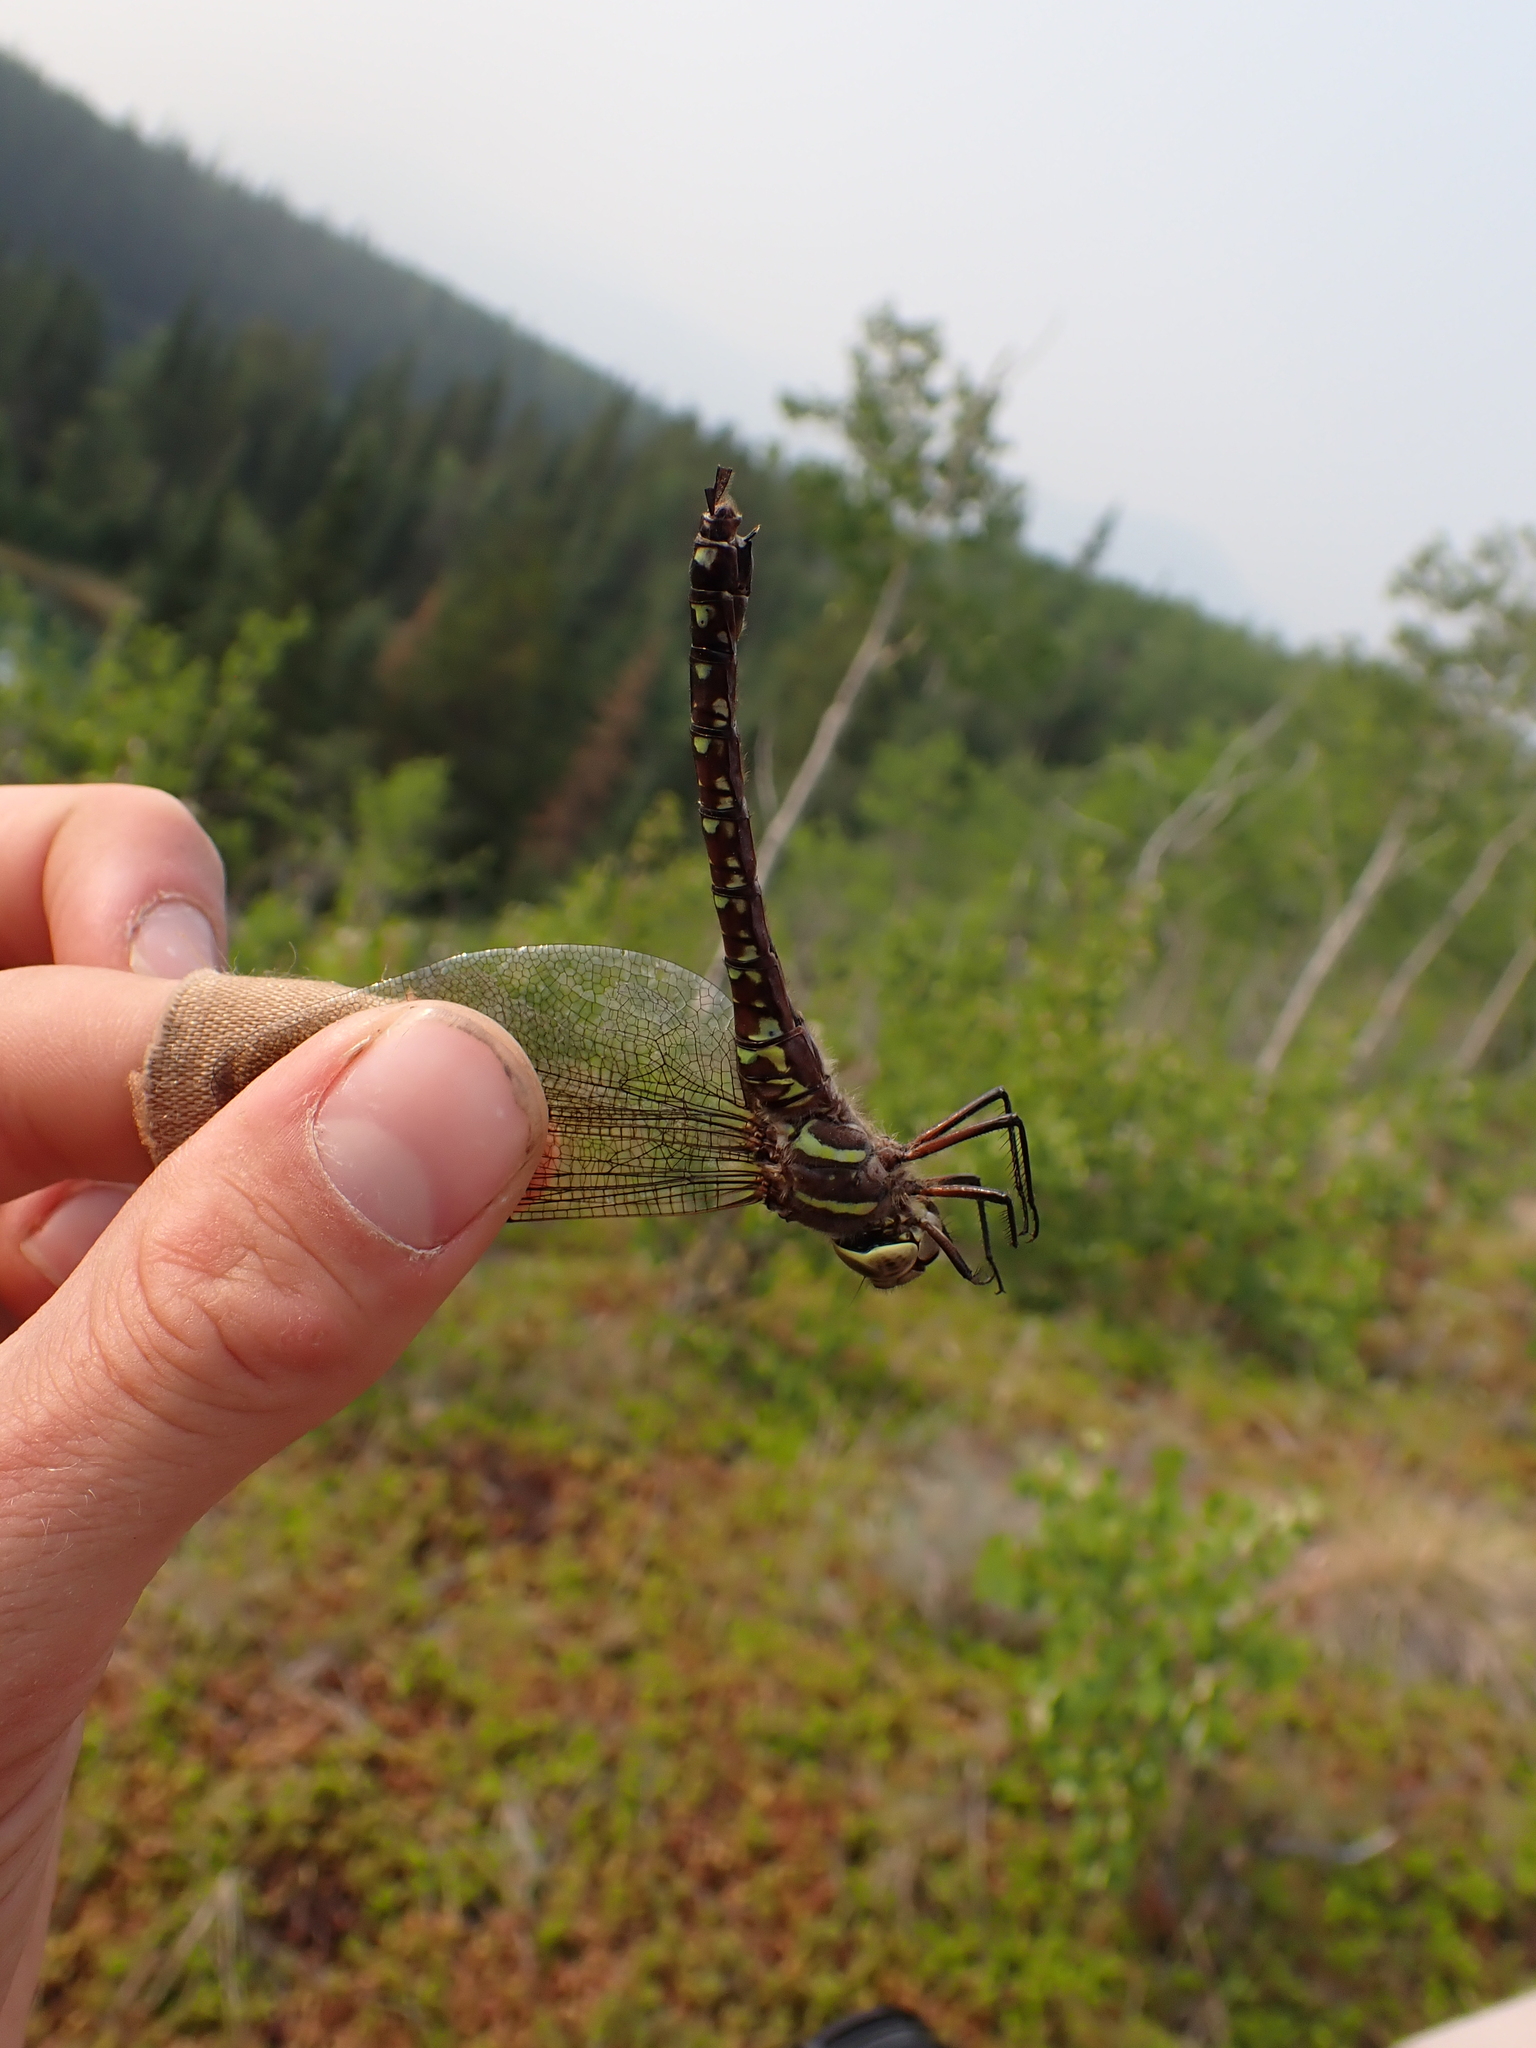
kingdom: Animalia
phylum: Arthropoda
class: Insecta
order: Odonata
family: Aeshnidae
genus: Aeshna
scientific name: Aeshna palmata
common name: Paddle-tailed darner
